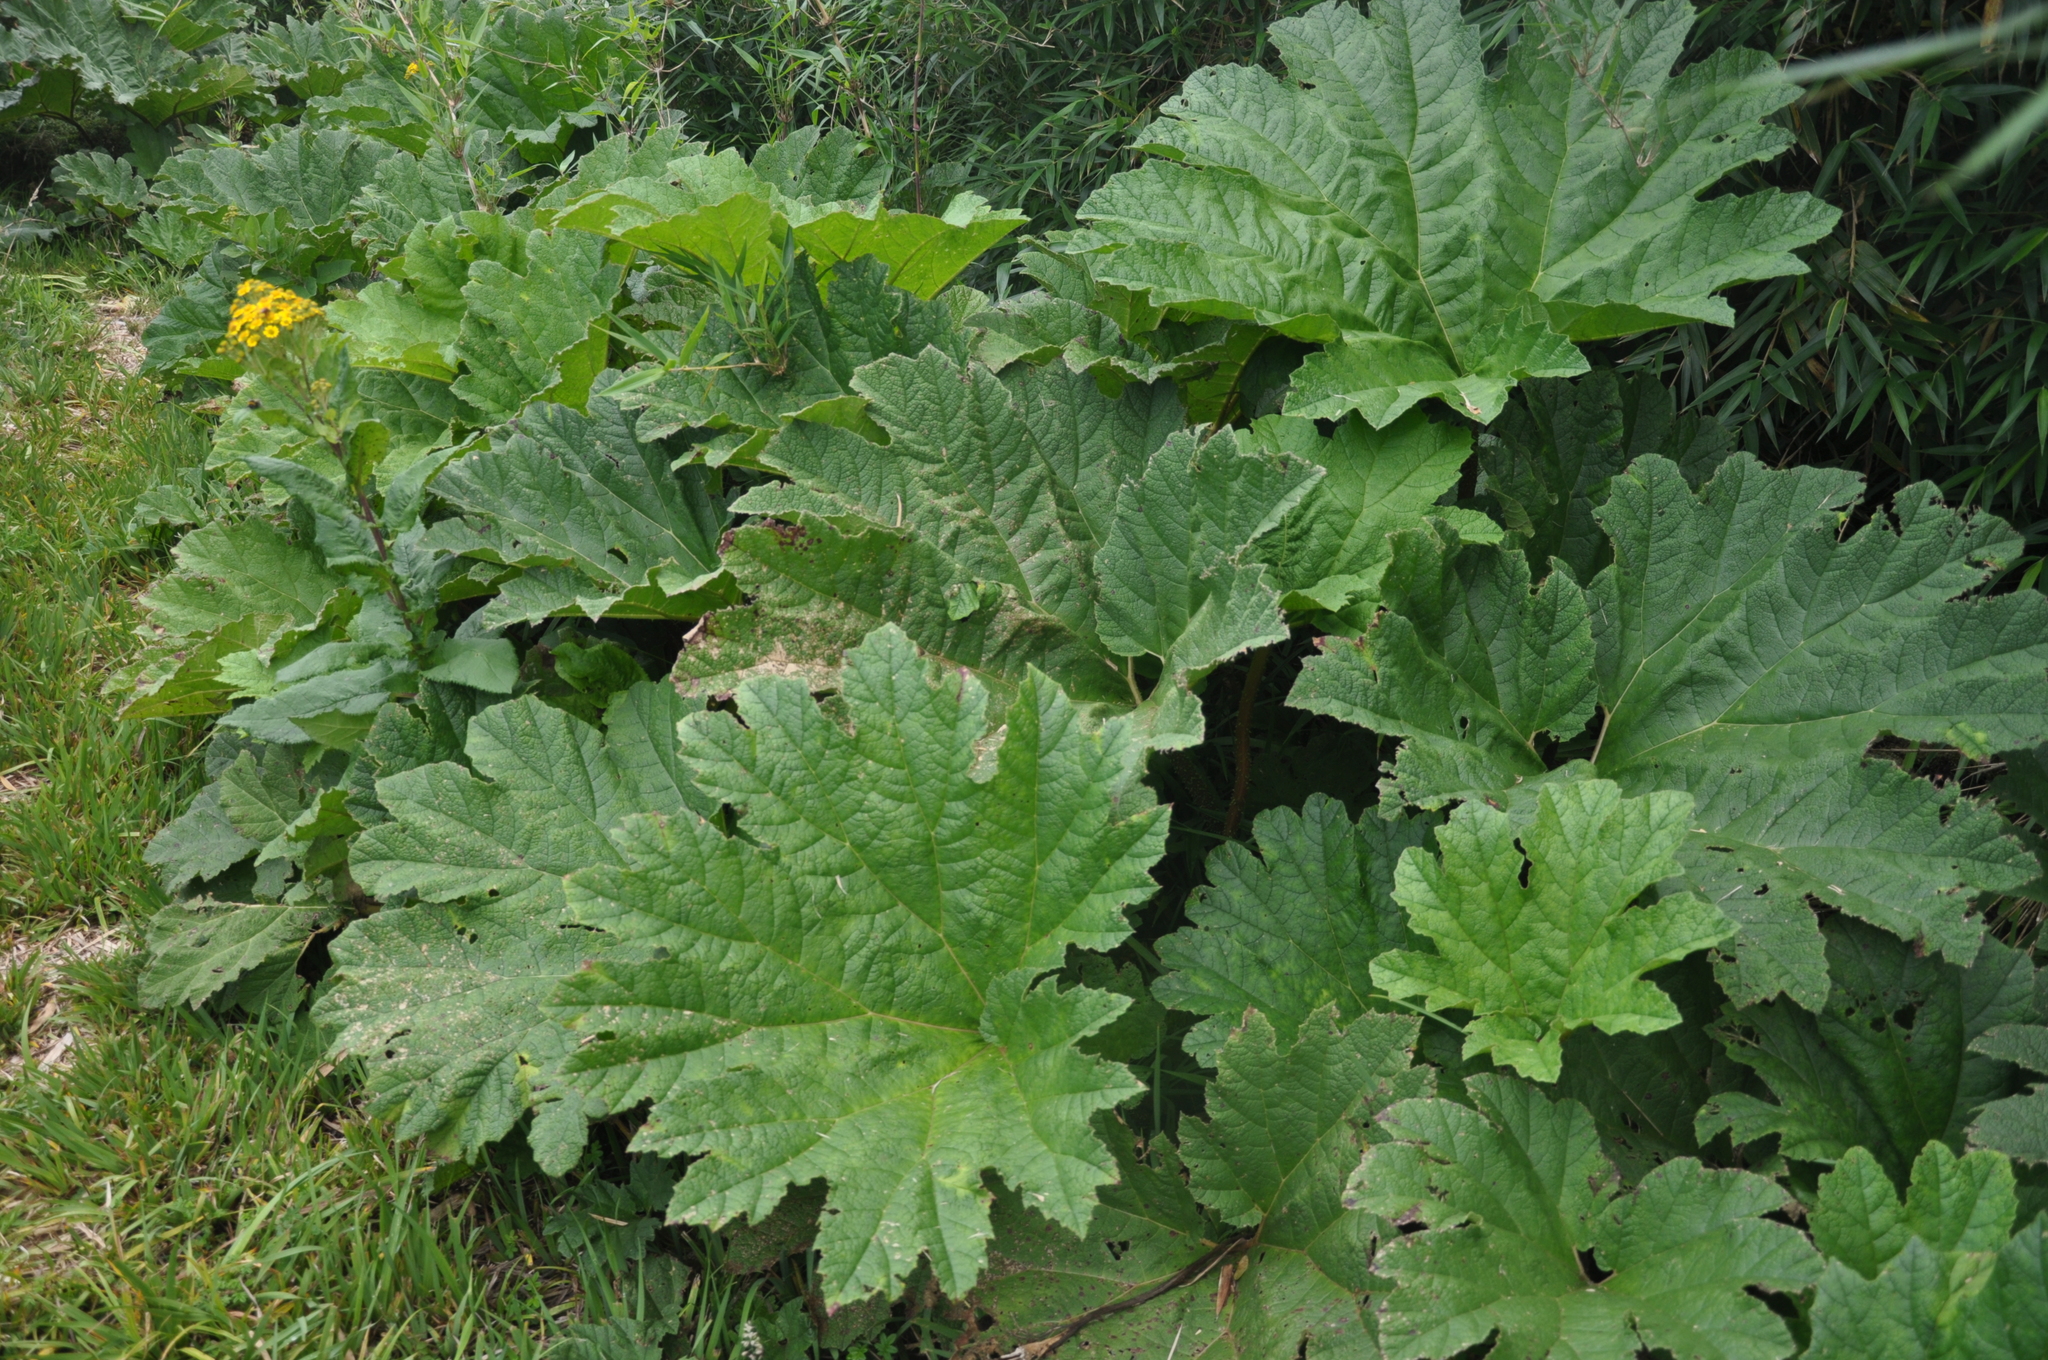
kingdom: Plantae
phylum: Tracheophyta
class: Magnoliopsida
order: Gunnerales
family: Gunneraceae
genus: Gunnera
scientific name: Gunnera tinctoria
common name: Giant-rhubarb
